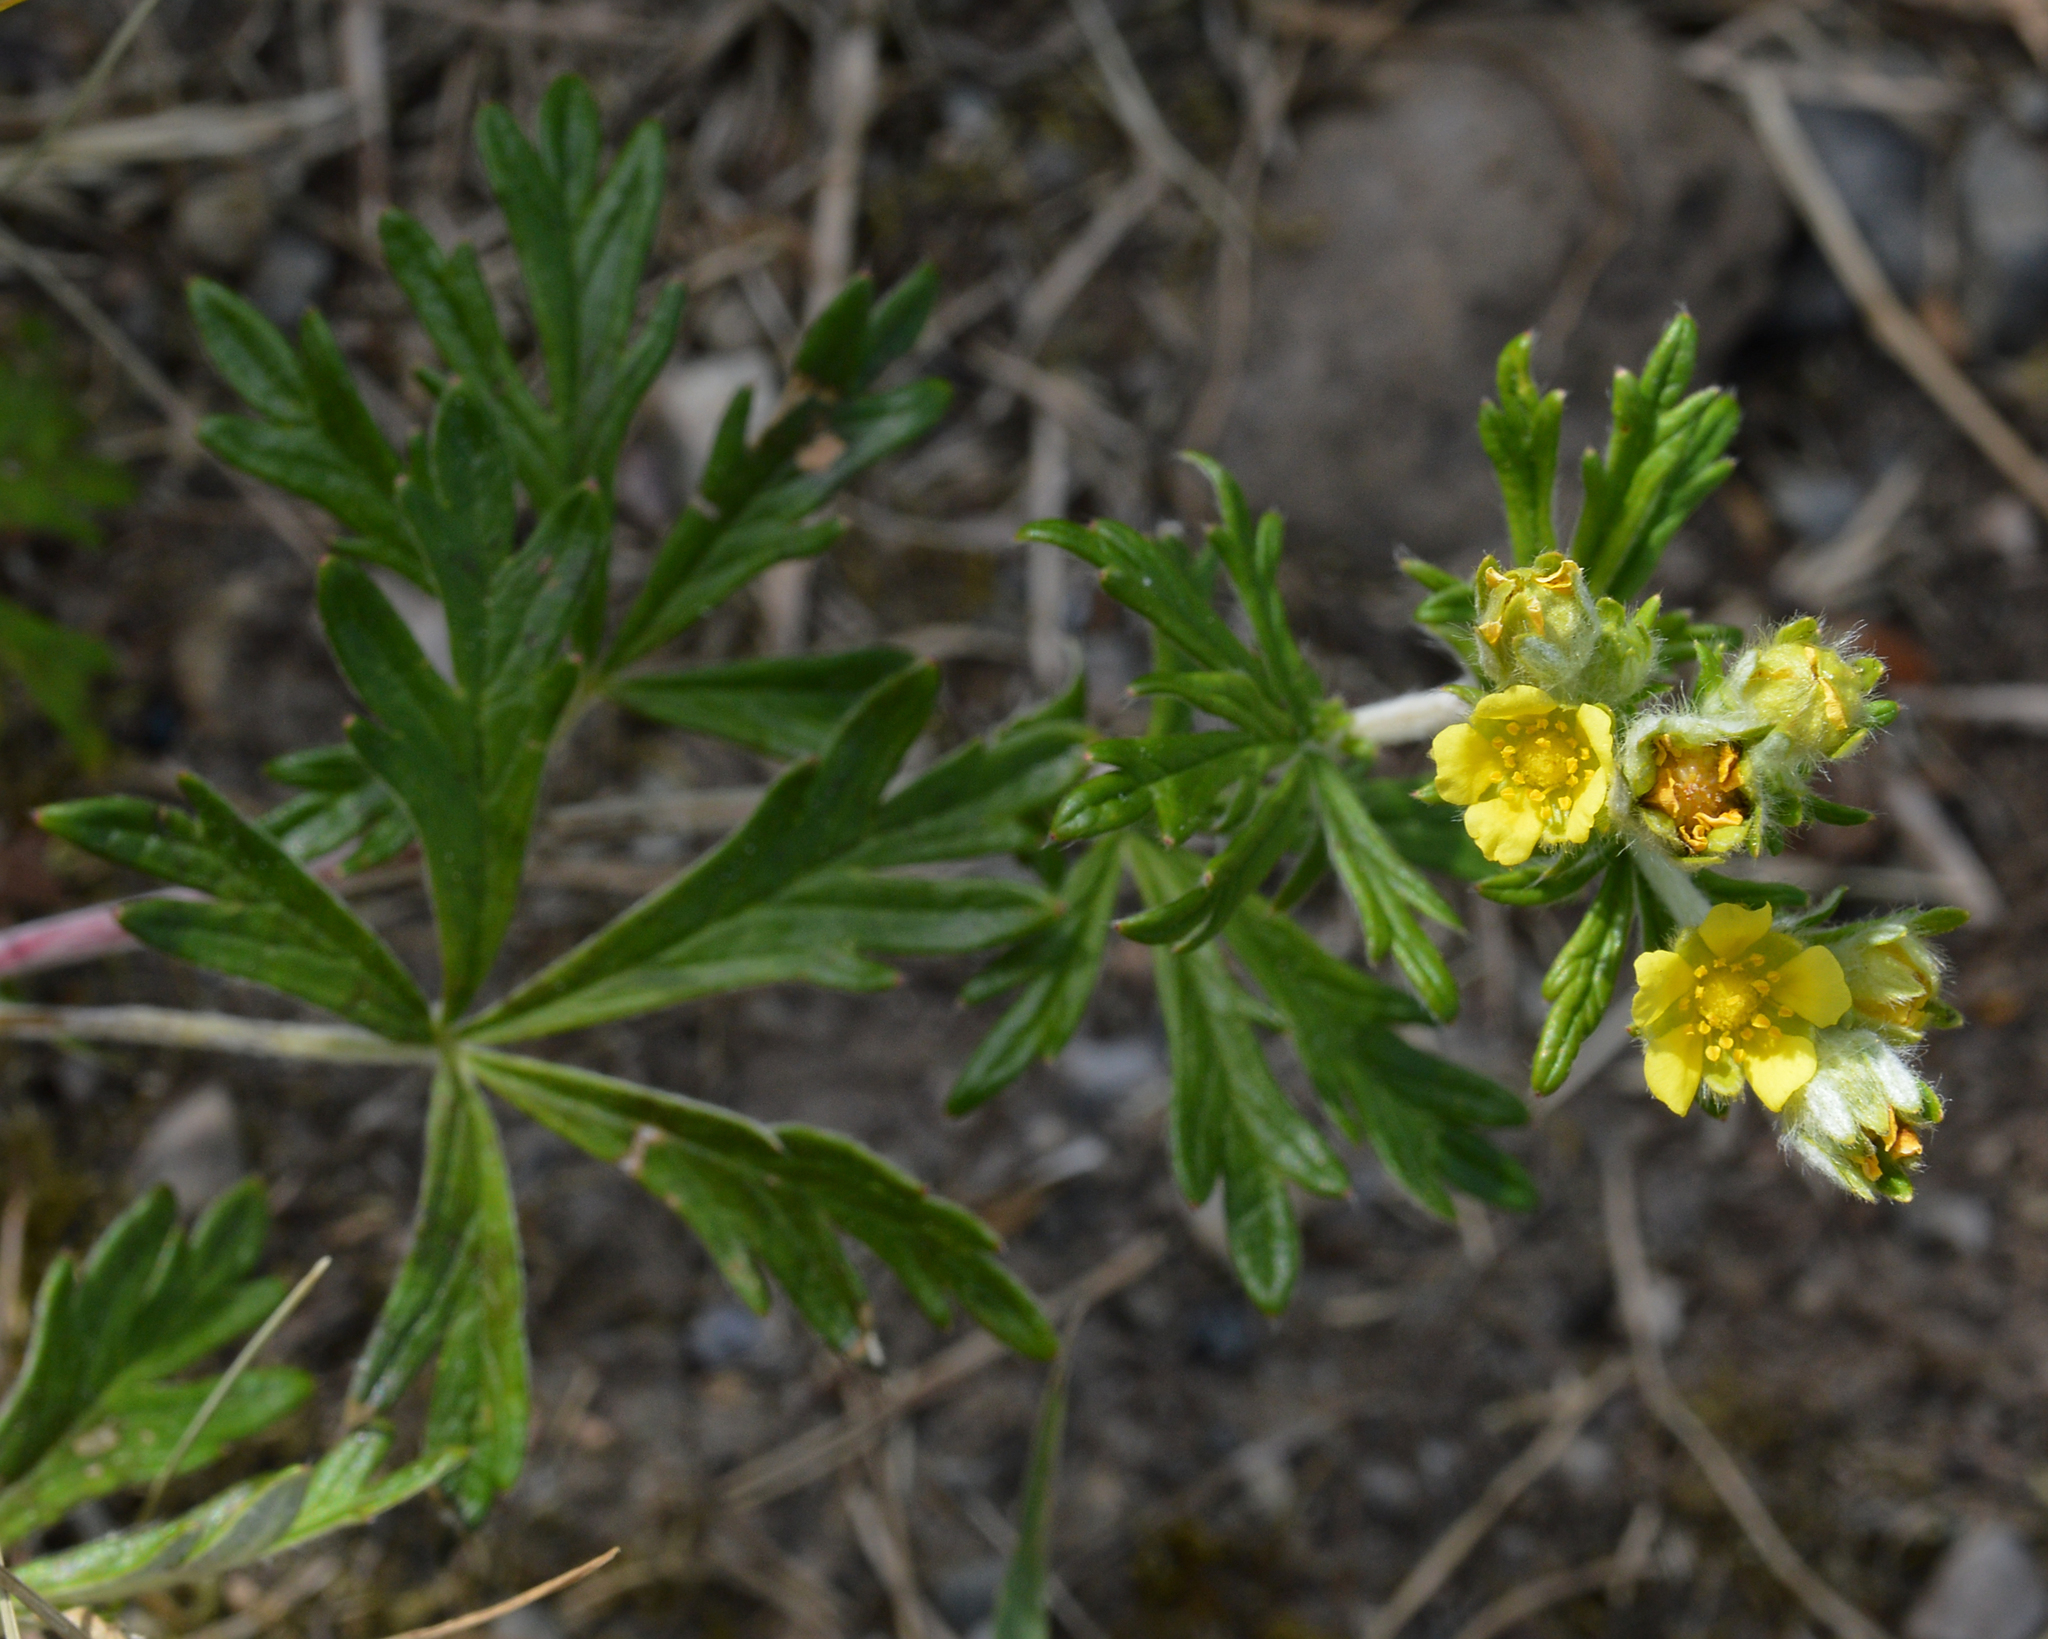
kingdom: Plantae
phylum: Tracheophyta
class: Magnoliopsida
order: Rosales
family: Rosaceae
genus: Potentilla
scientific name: Potentilla argentea
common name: Hoary cinquefoil
